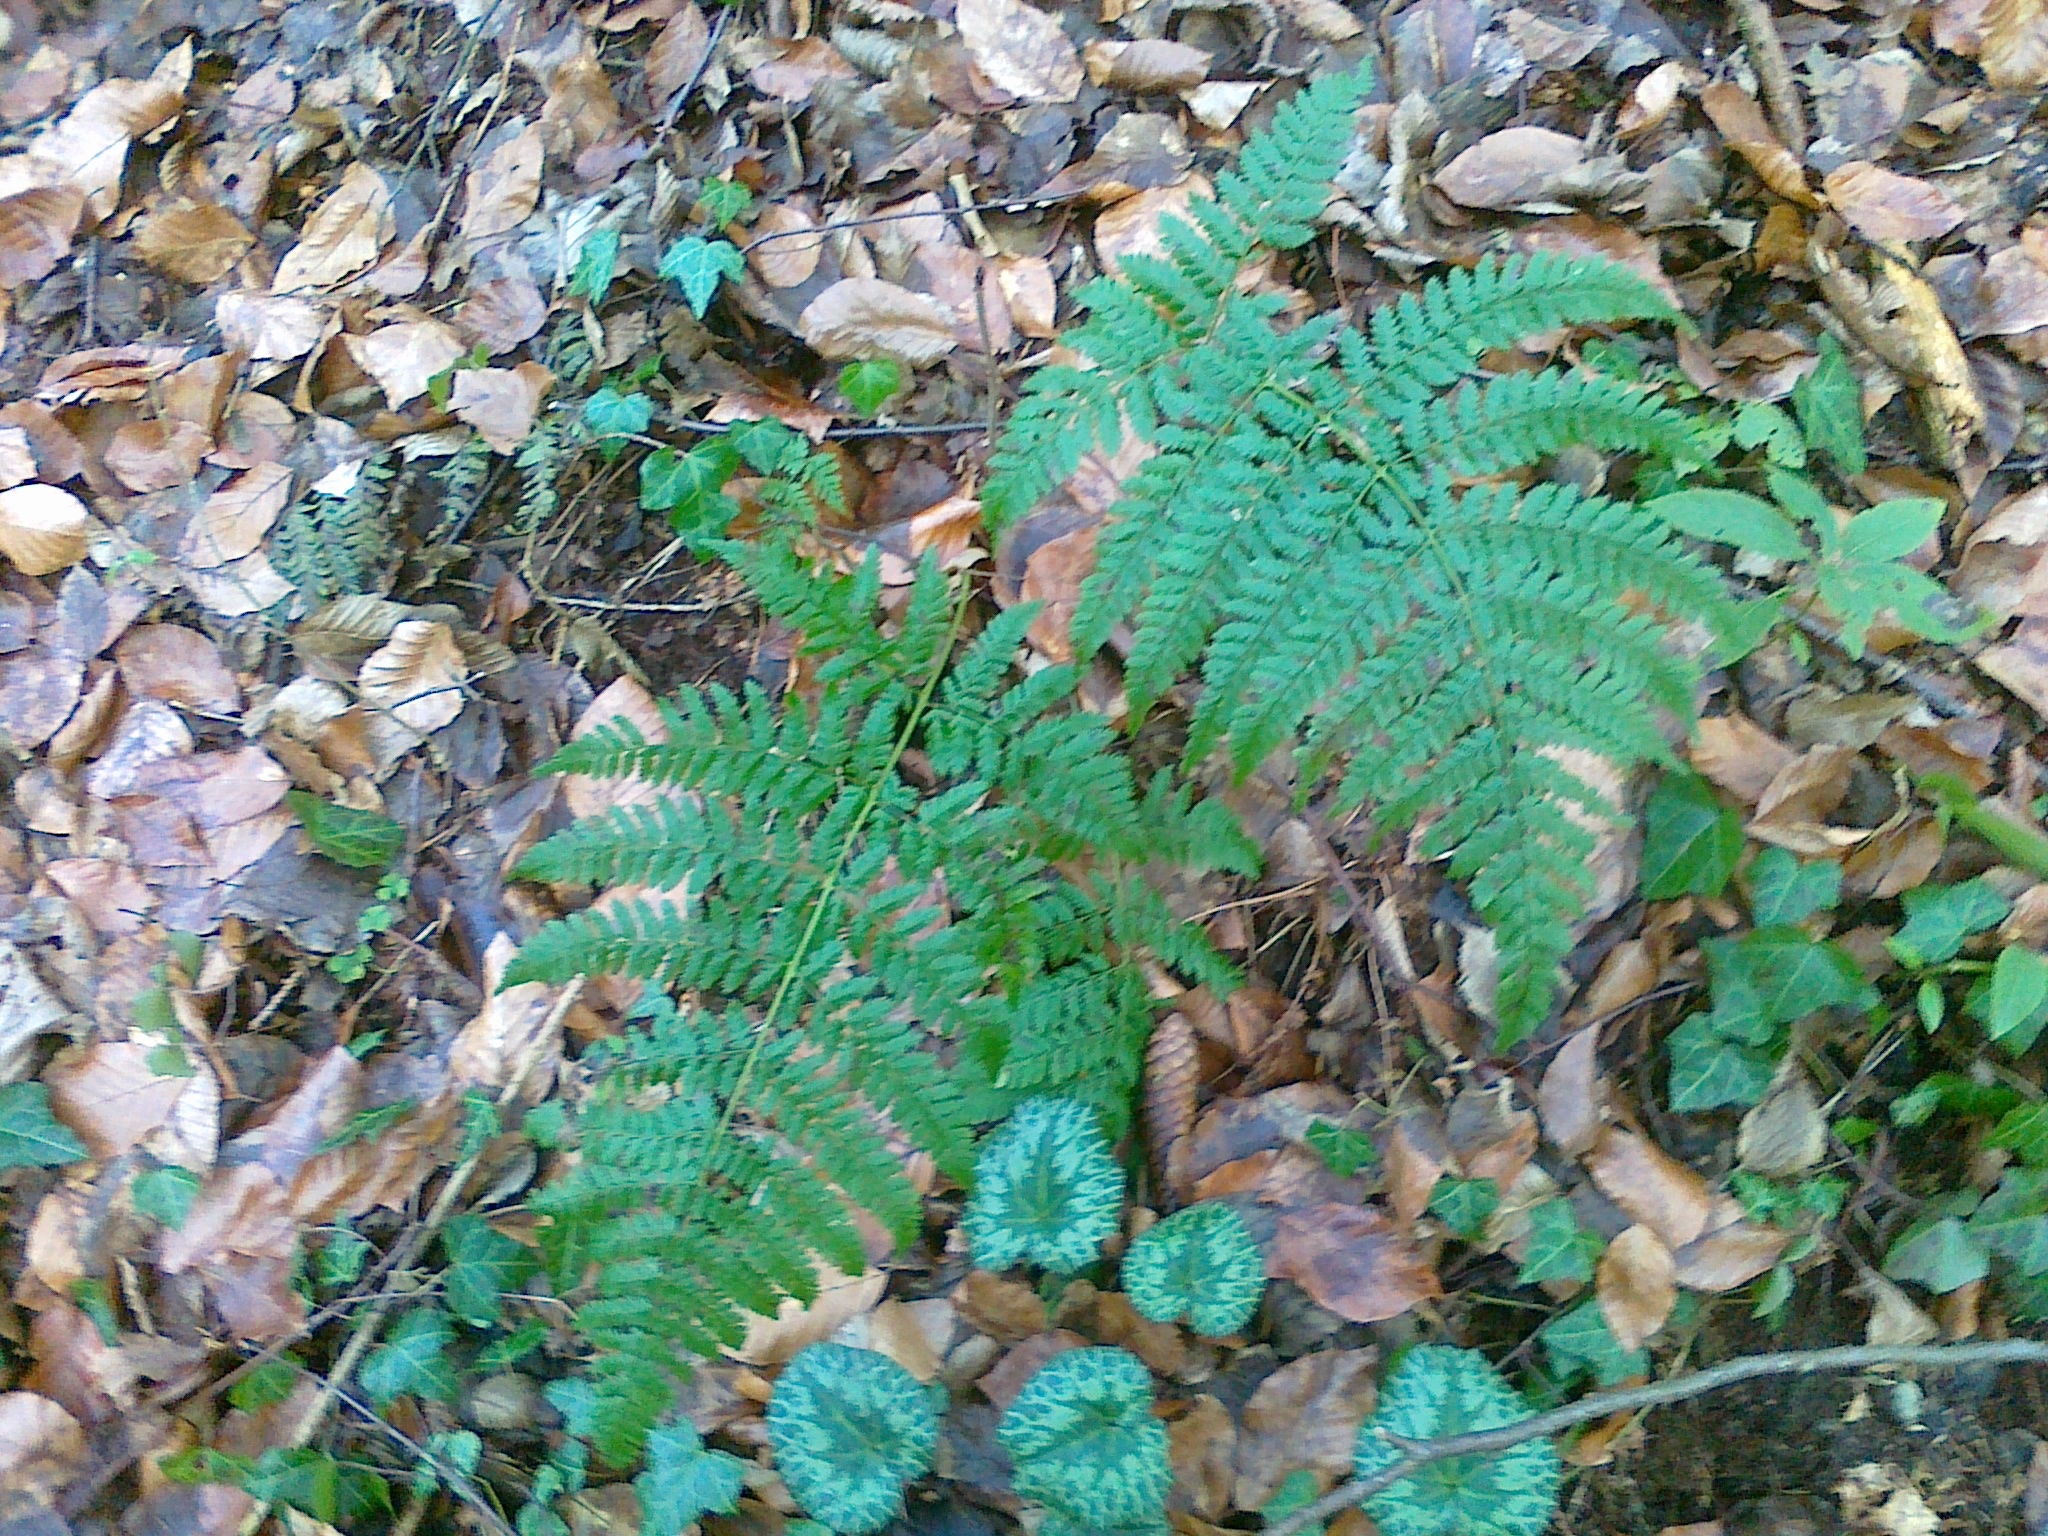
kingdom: Plantae
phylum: Tracheophyta
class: Magnoliopsida
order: Ericales
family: Primulaceae
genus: Cyclamen
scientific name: Cyclamen purpurascens
